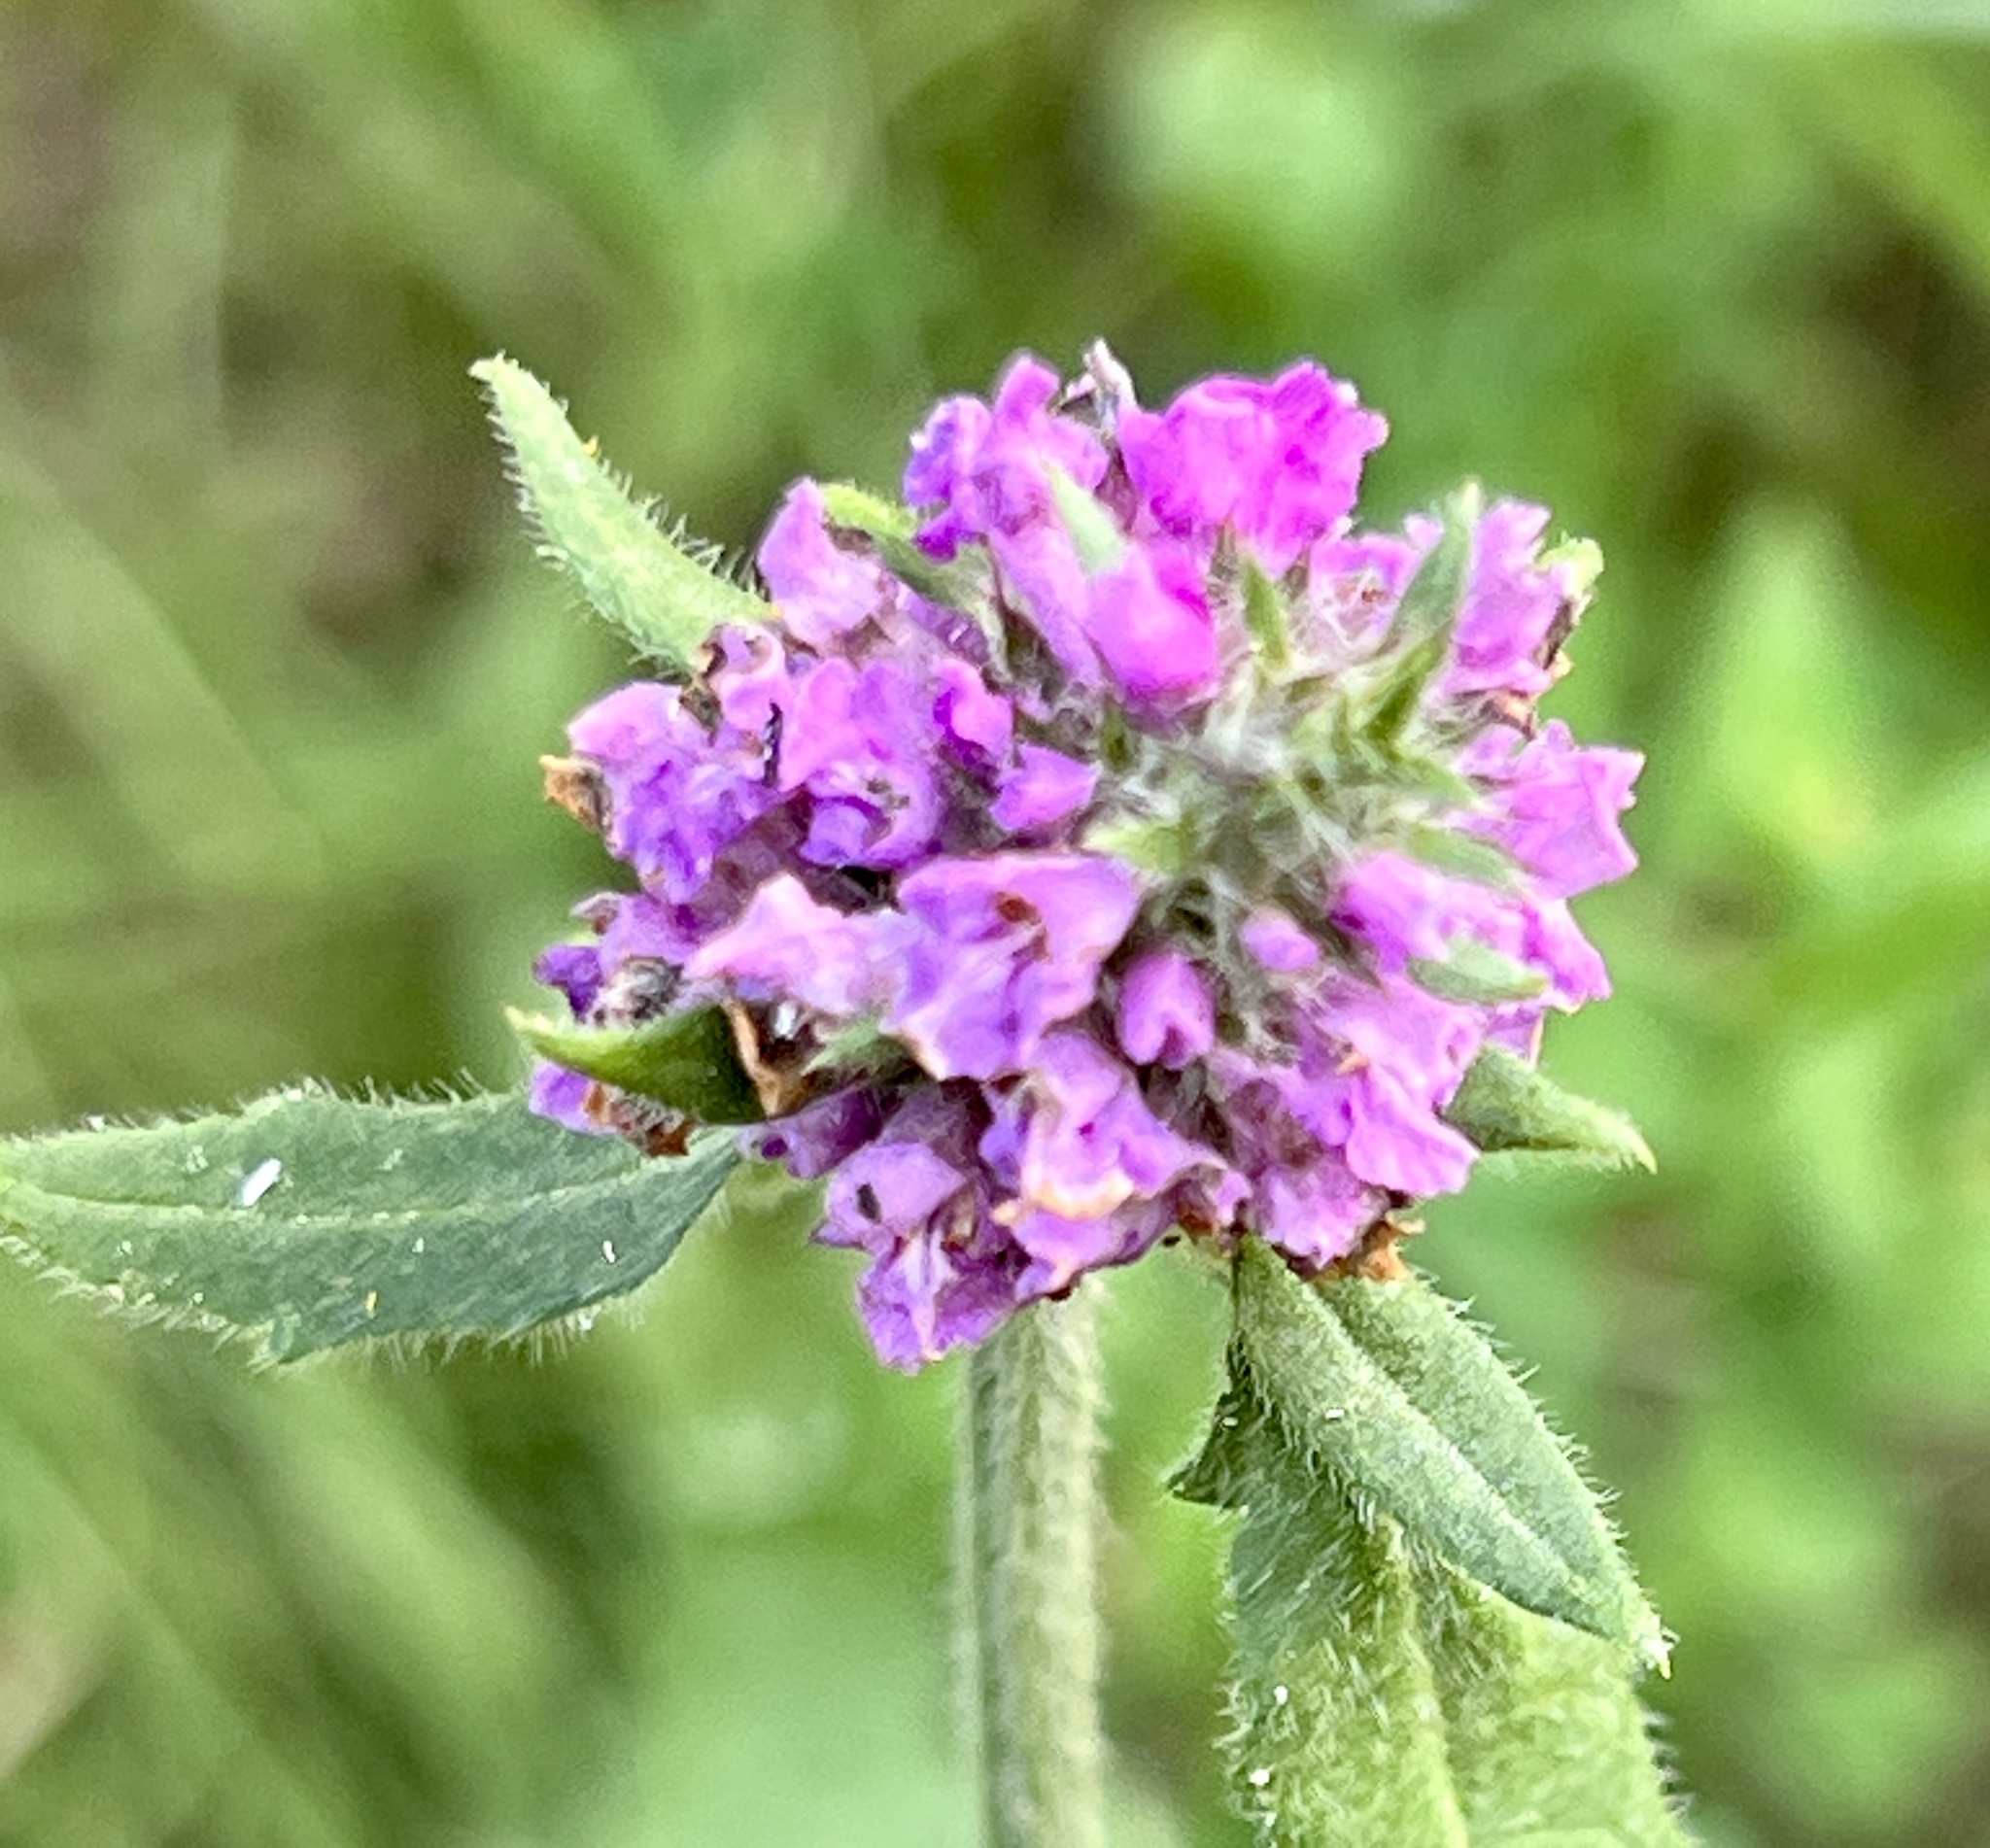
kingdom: Plantae
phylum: Tracheophyta
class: Magnoliopsida
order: Lamiales
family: Lamiaceae
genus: Betonica
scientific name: Betonica officinalis
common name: Bishop's-wort
